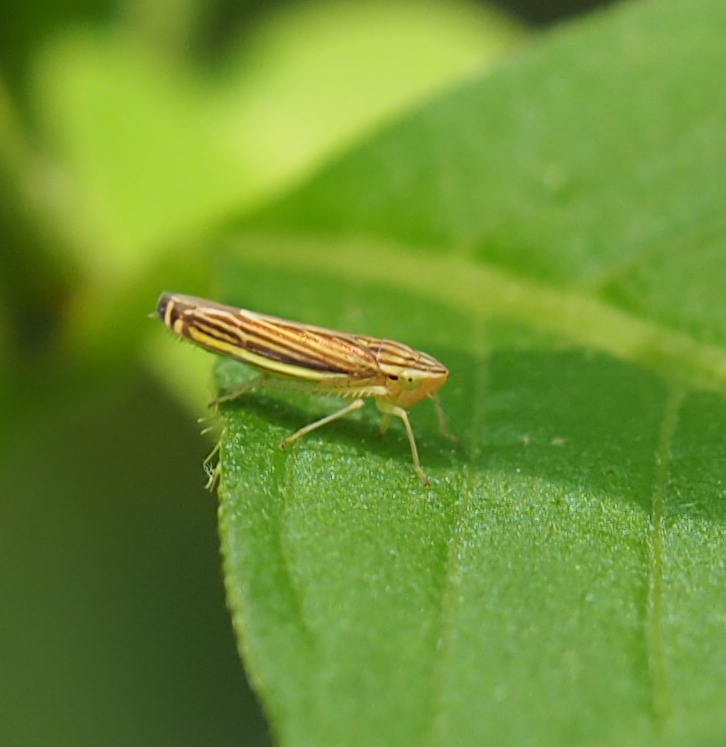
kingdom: Animalia
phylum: Arthropoda
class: Insecta
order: Hemiptera
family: Cicadellidae
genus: Sibovia
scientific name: Sibovia occatoria
